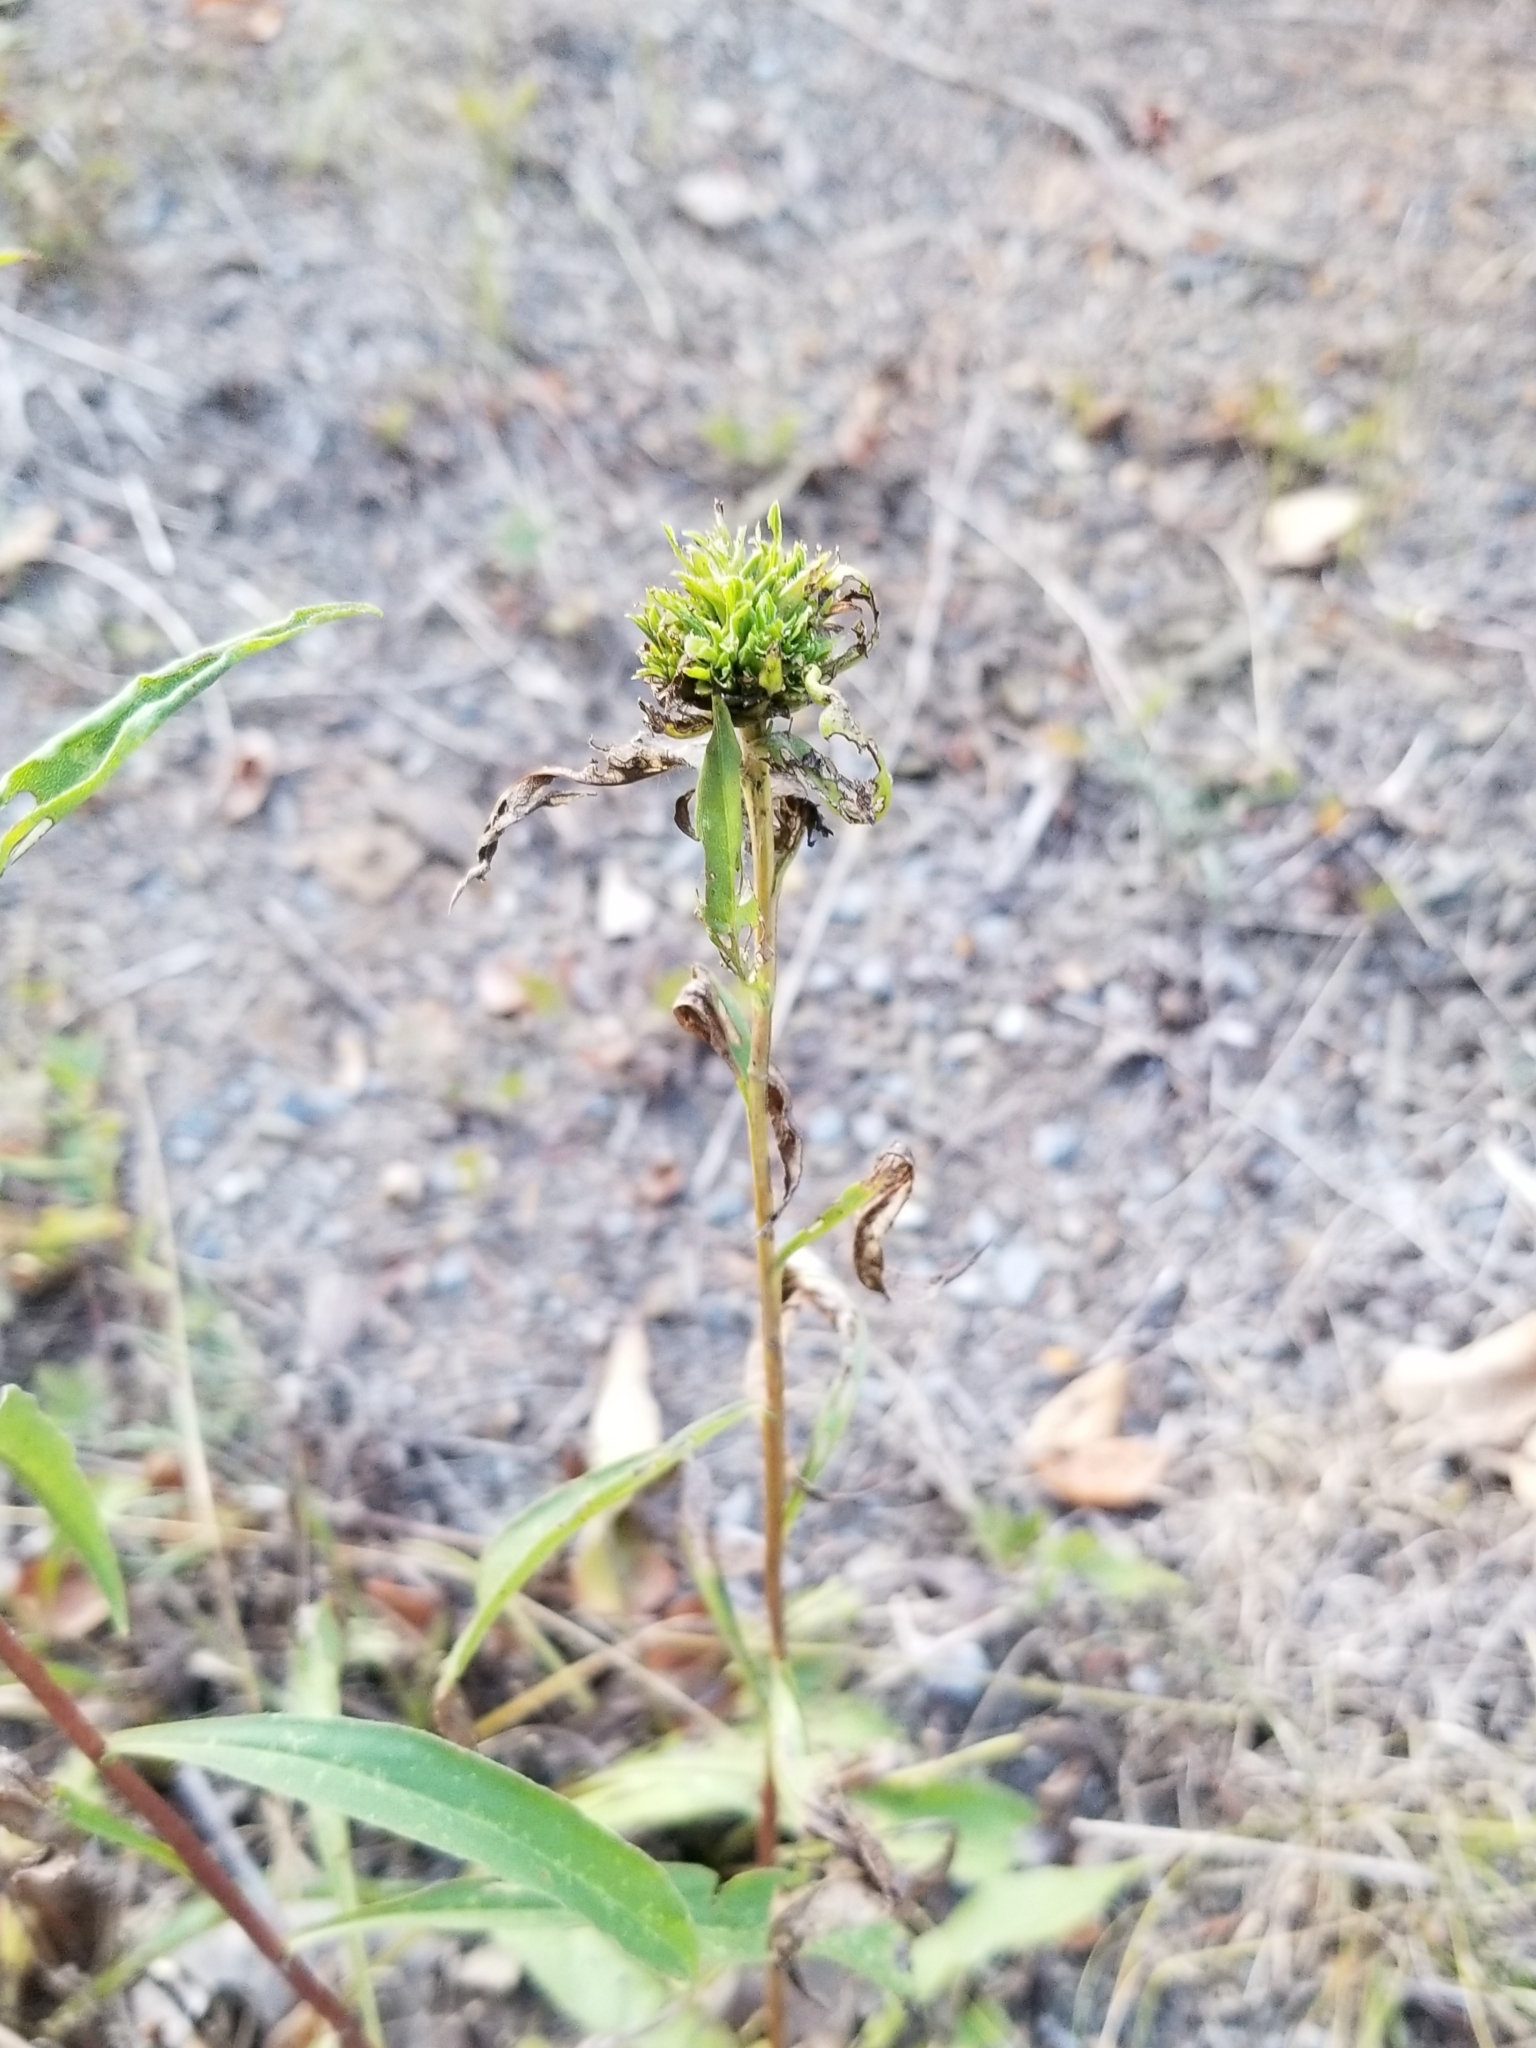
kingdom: Plantae
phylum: Tracheophyta
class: Magnoliopsida
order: Asterales
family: Asteraceae
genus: Solidago
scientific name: Solidago juncea
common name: Early goldenrod
